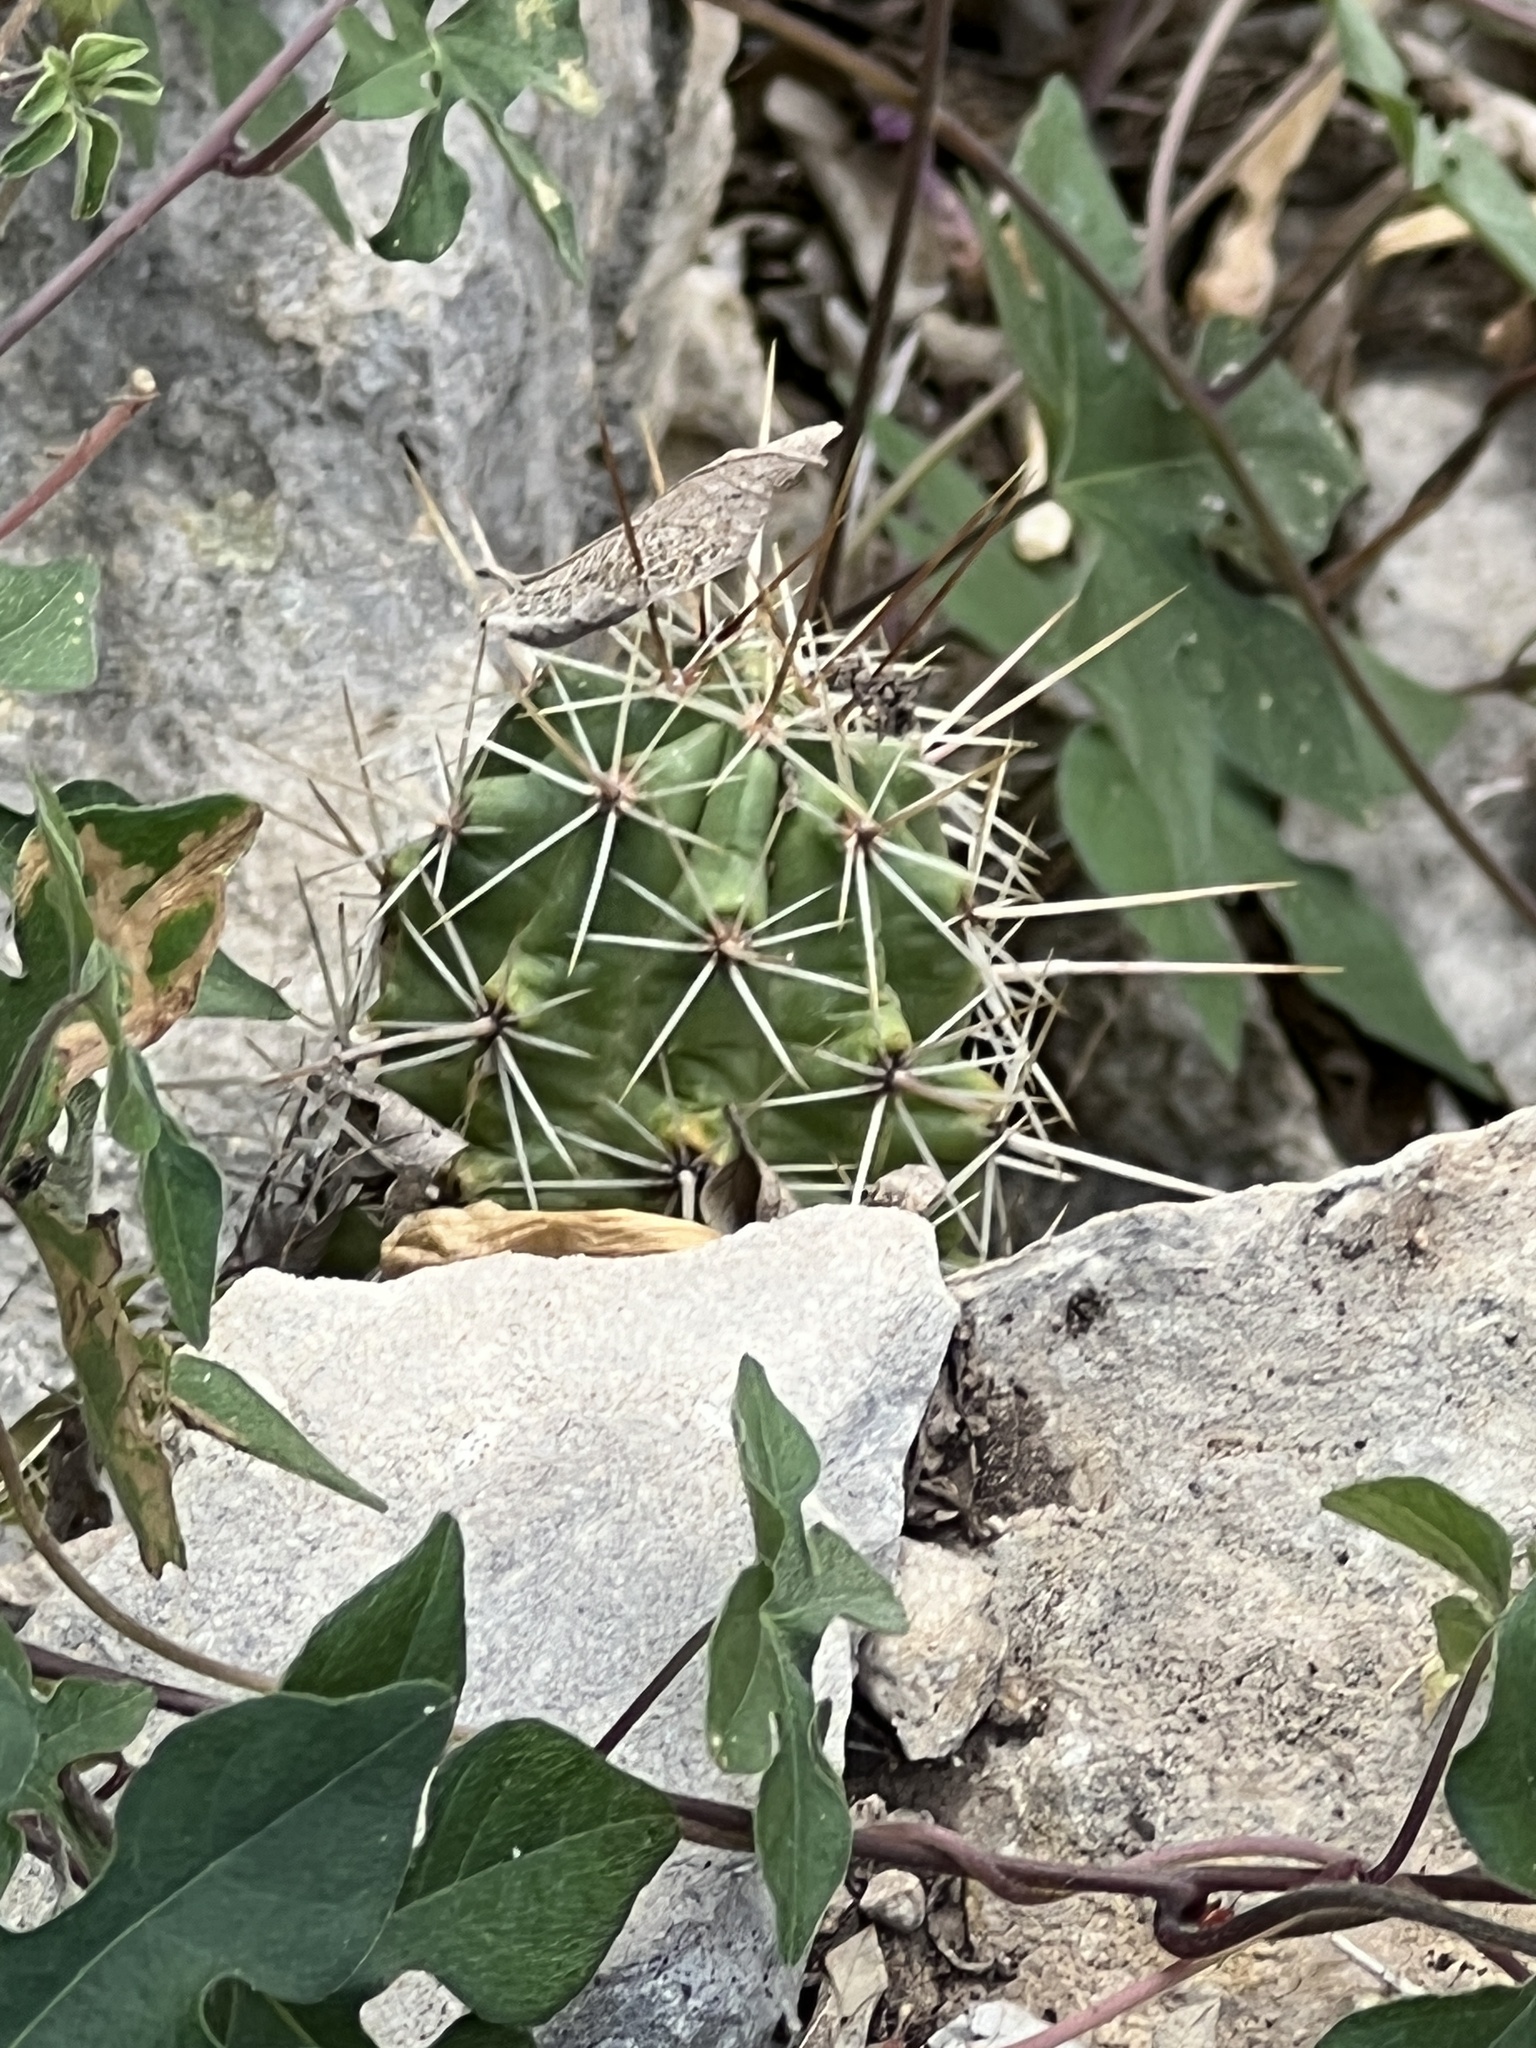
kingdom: Plantae
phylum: Tracheophyta
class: Magnoliopsida
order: Caryophyllales
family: Cactaceae
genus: Echinocereus
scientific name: Echinocereus enneacanthus
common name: Pitaya
